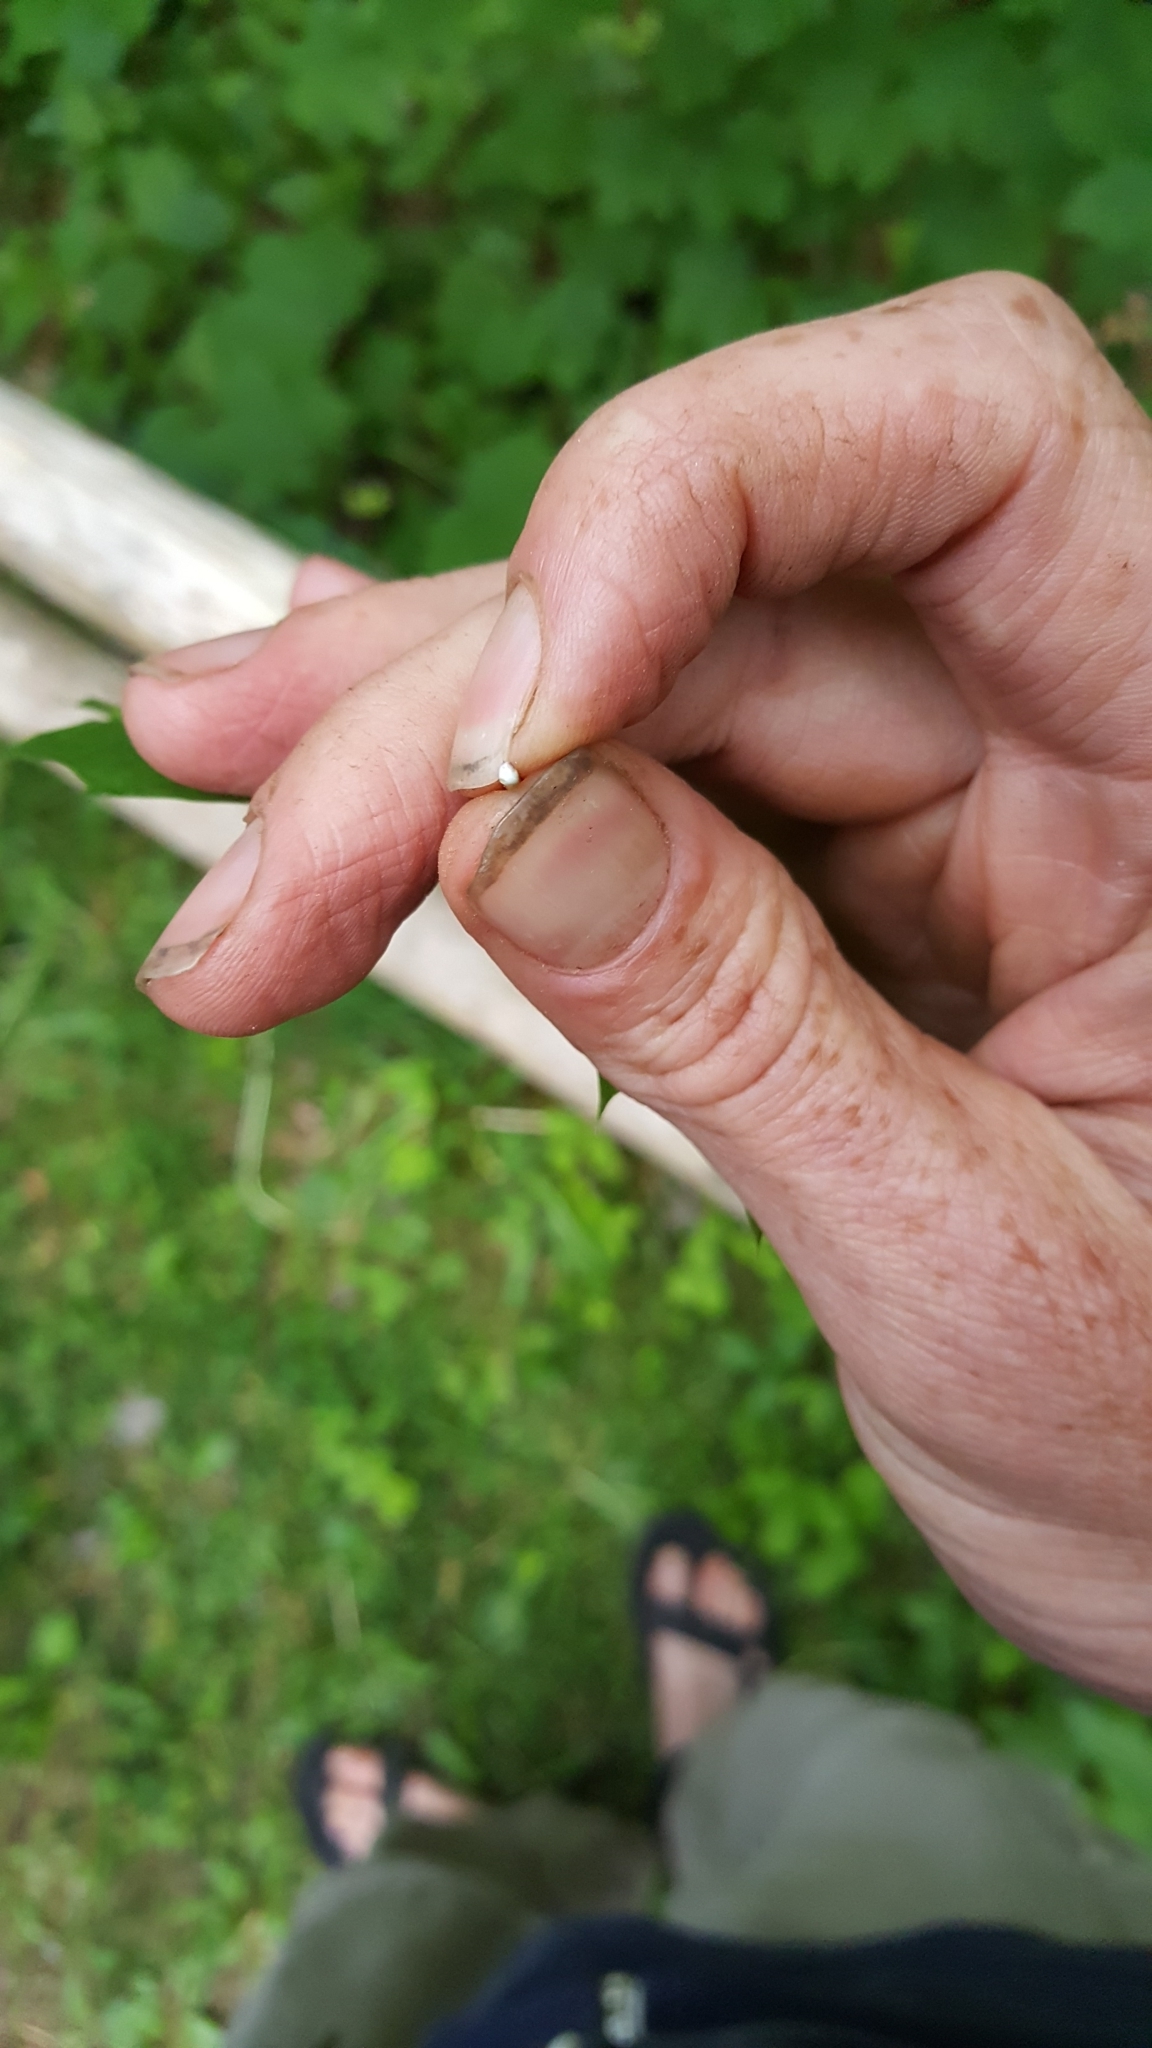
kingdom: Plantae
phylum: Tracheophyta
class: Magnoliopsida
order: Sapindales
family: Sapindaceae
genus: Acer
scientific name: Acer platanoides
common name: Norway maple
